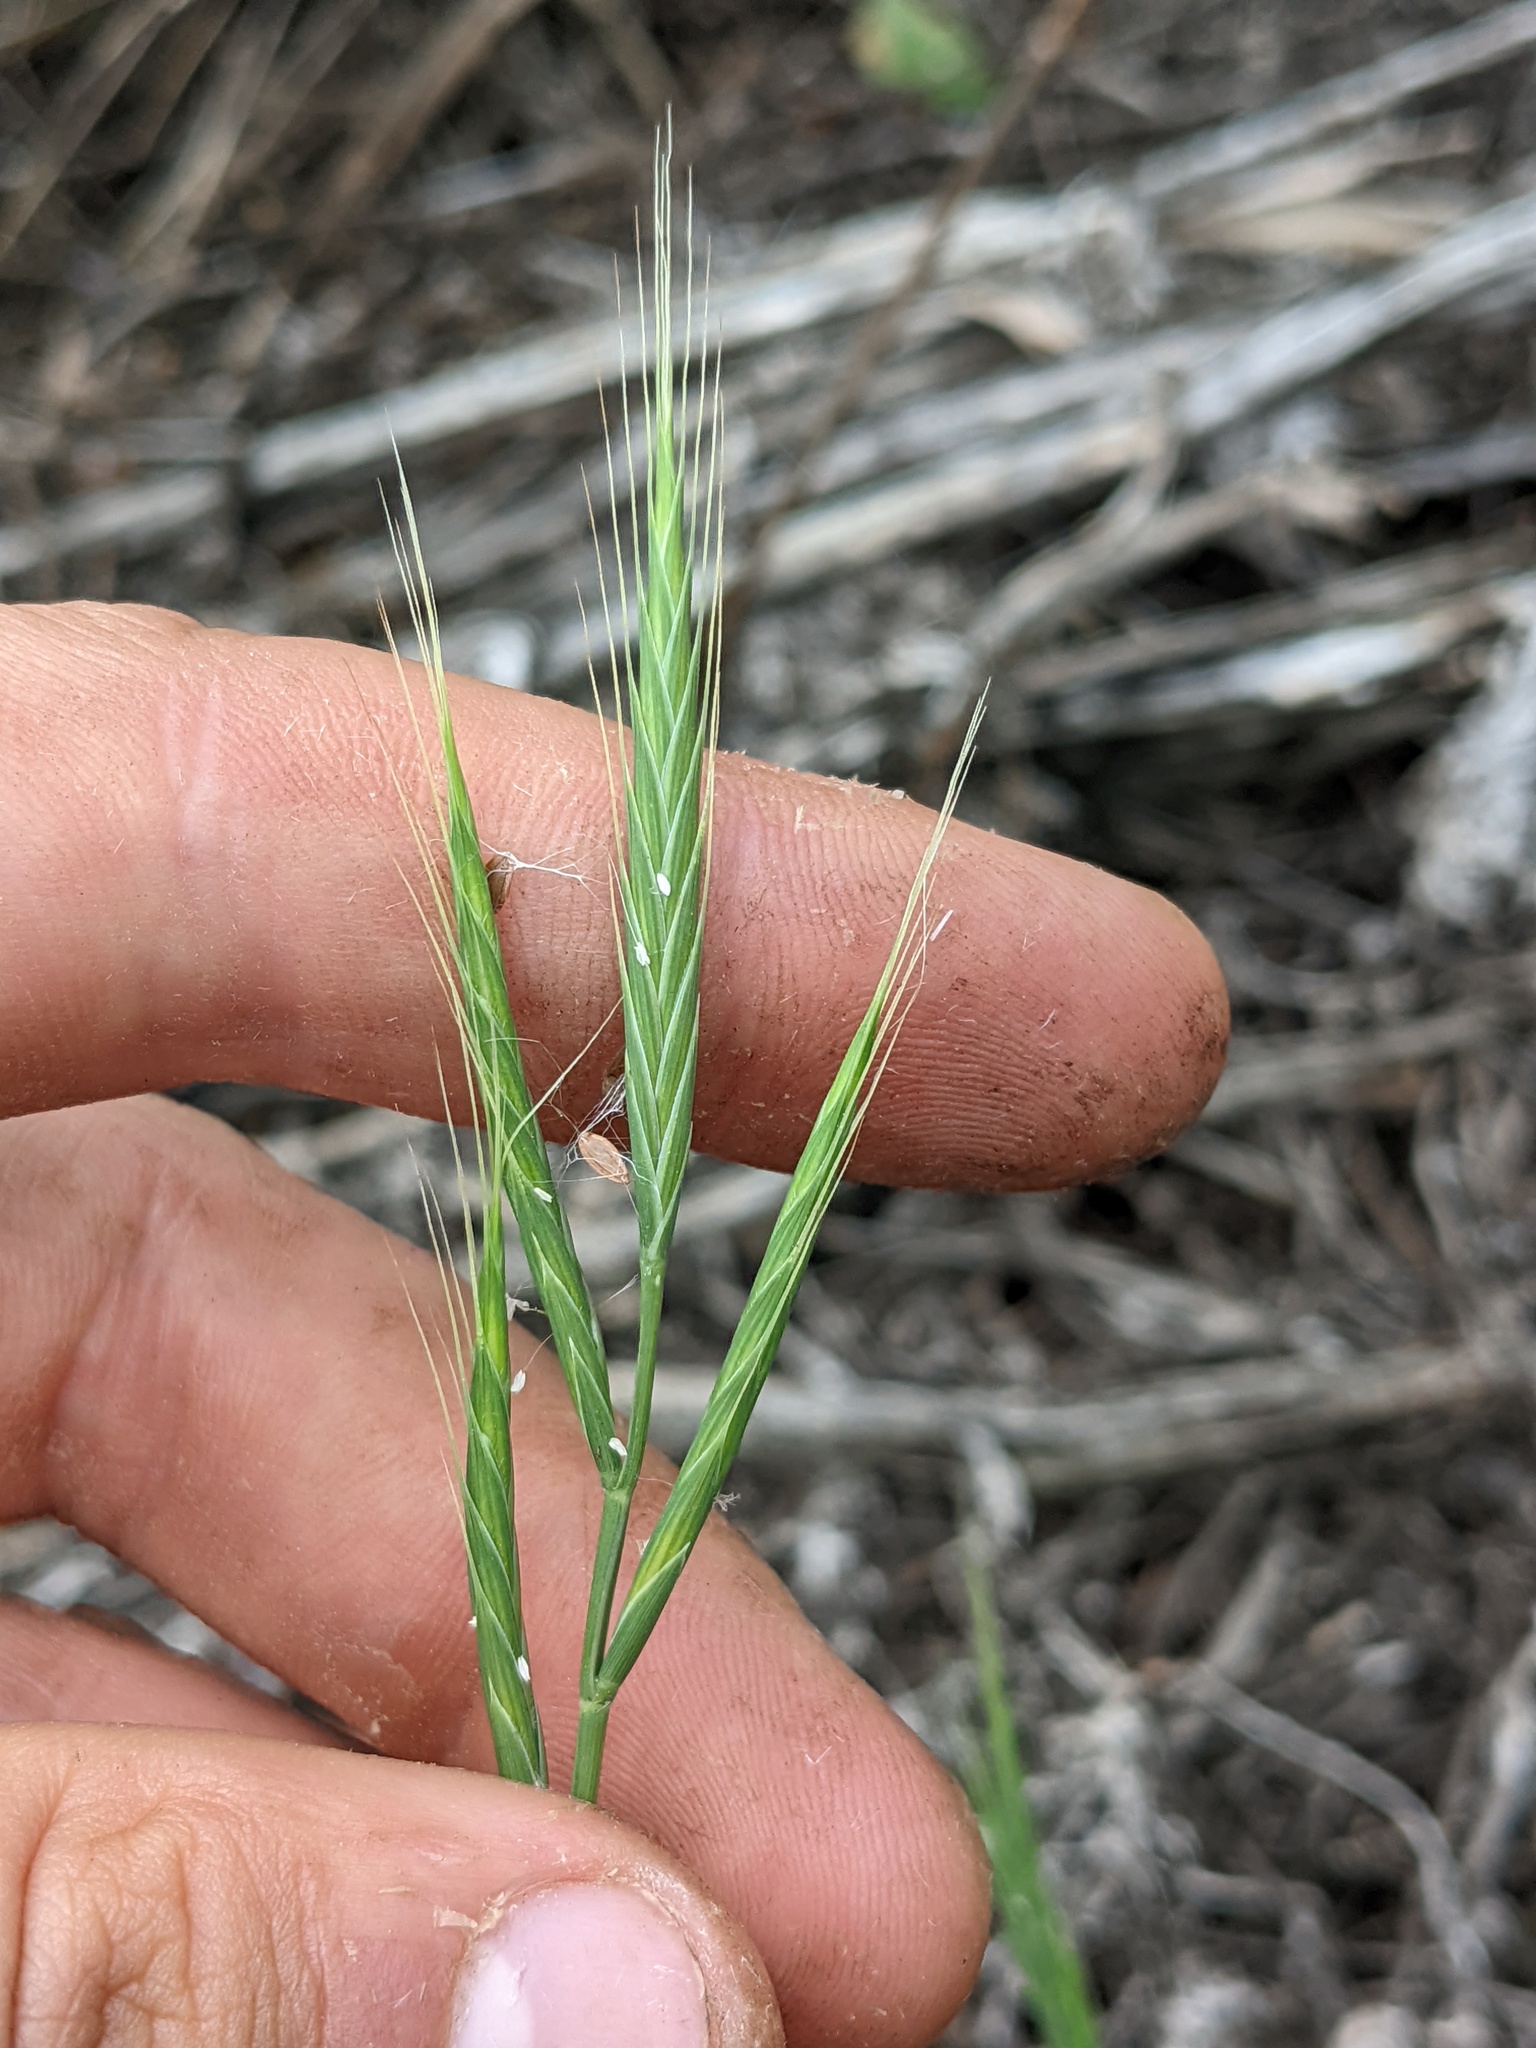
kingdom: Plantae
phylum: Tracheophyta
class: Liliopsida
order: Poales
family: Poaceae
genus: Brachypodium
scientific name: Brachypodium distachyon
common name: Stiff brome
